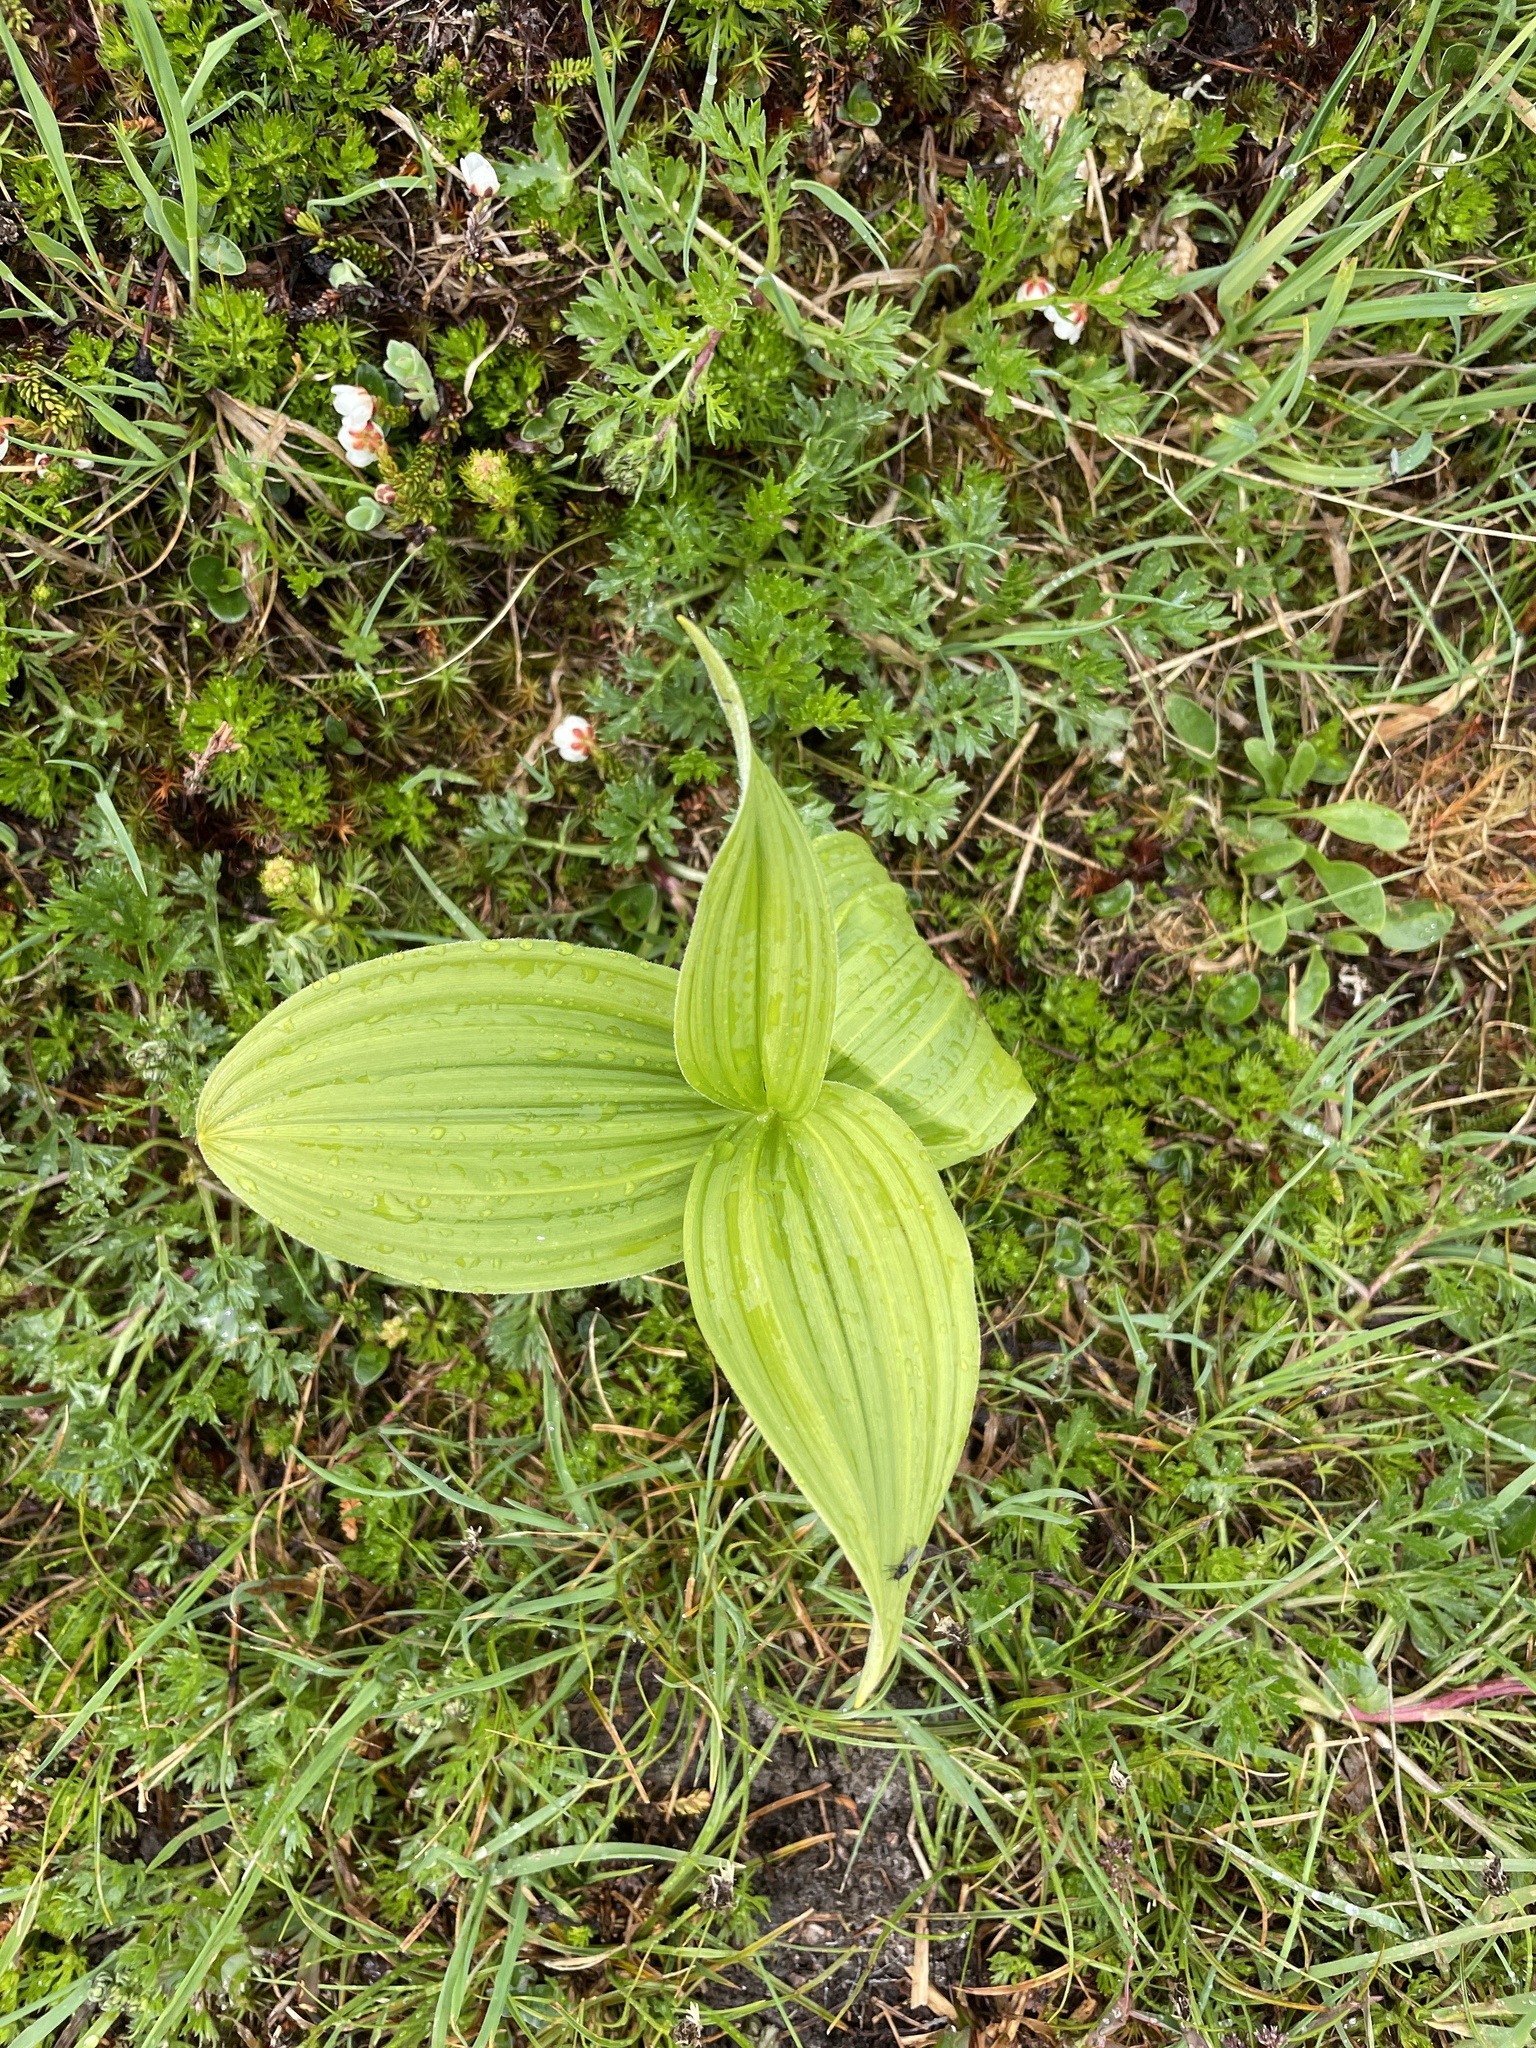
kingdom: Plantae
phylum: Tracheophyta
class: Liliopsida
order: Liliales
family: Melanthiaceae
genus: Veratrum
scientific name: Veratrum viride
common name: American false hellebore
